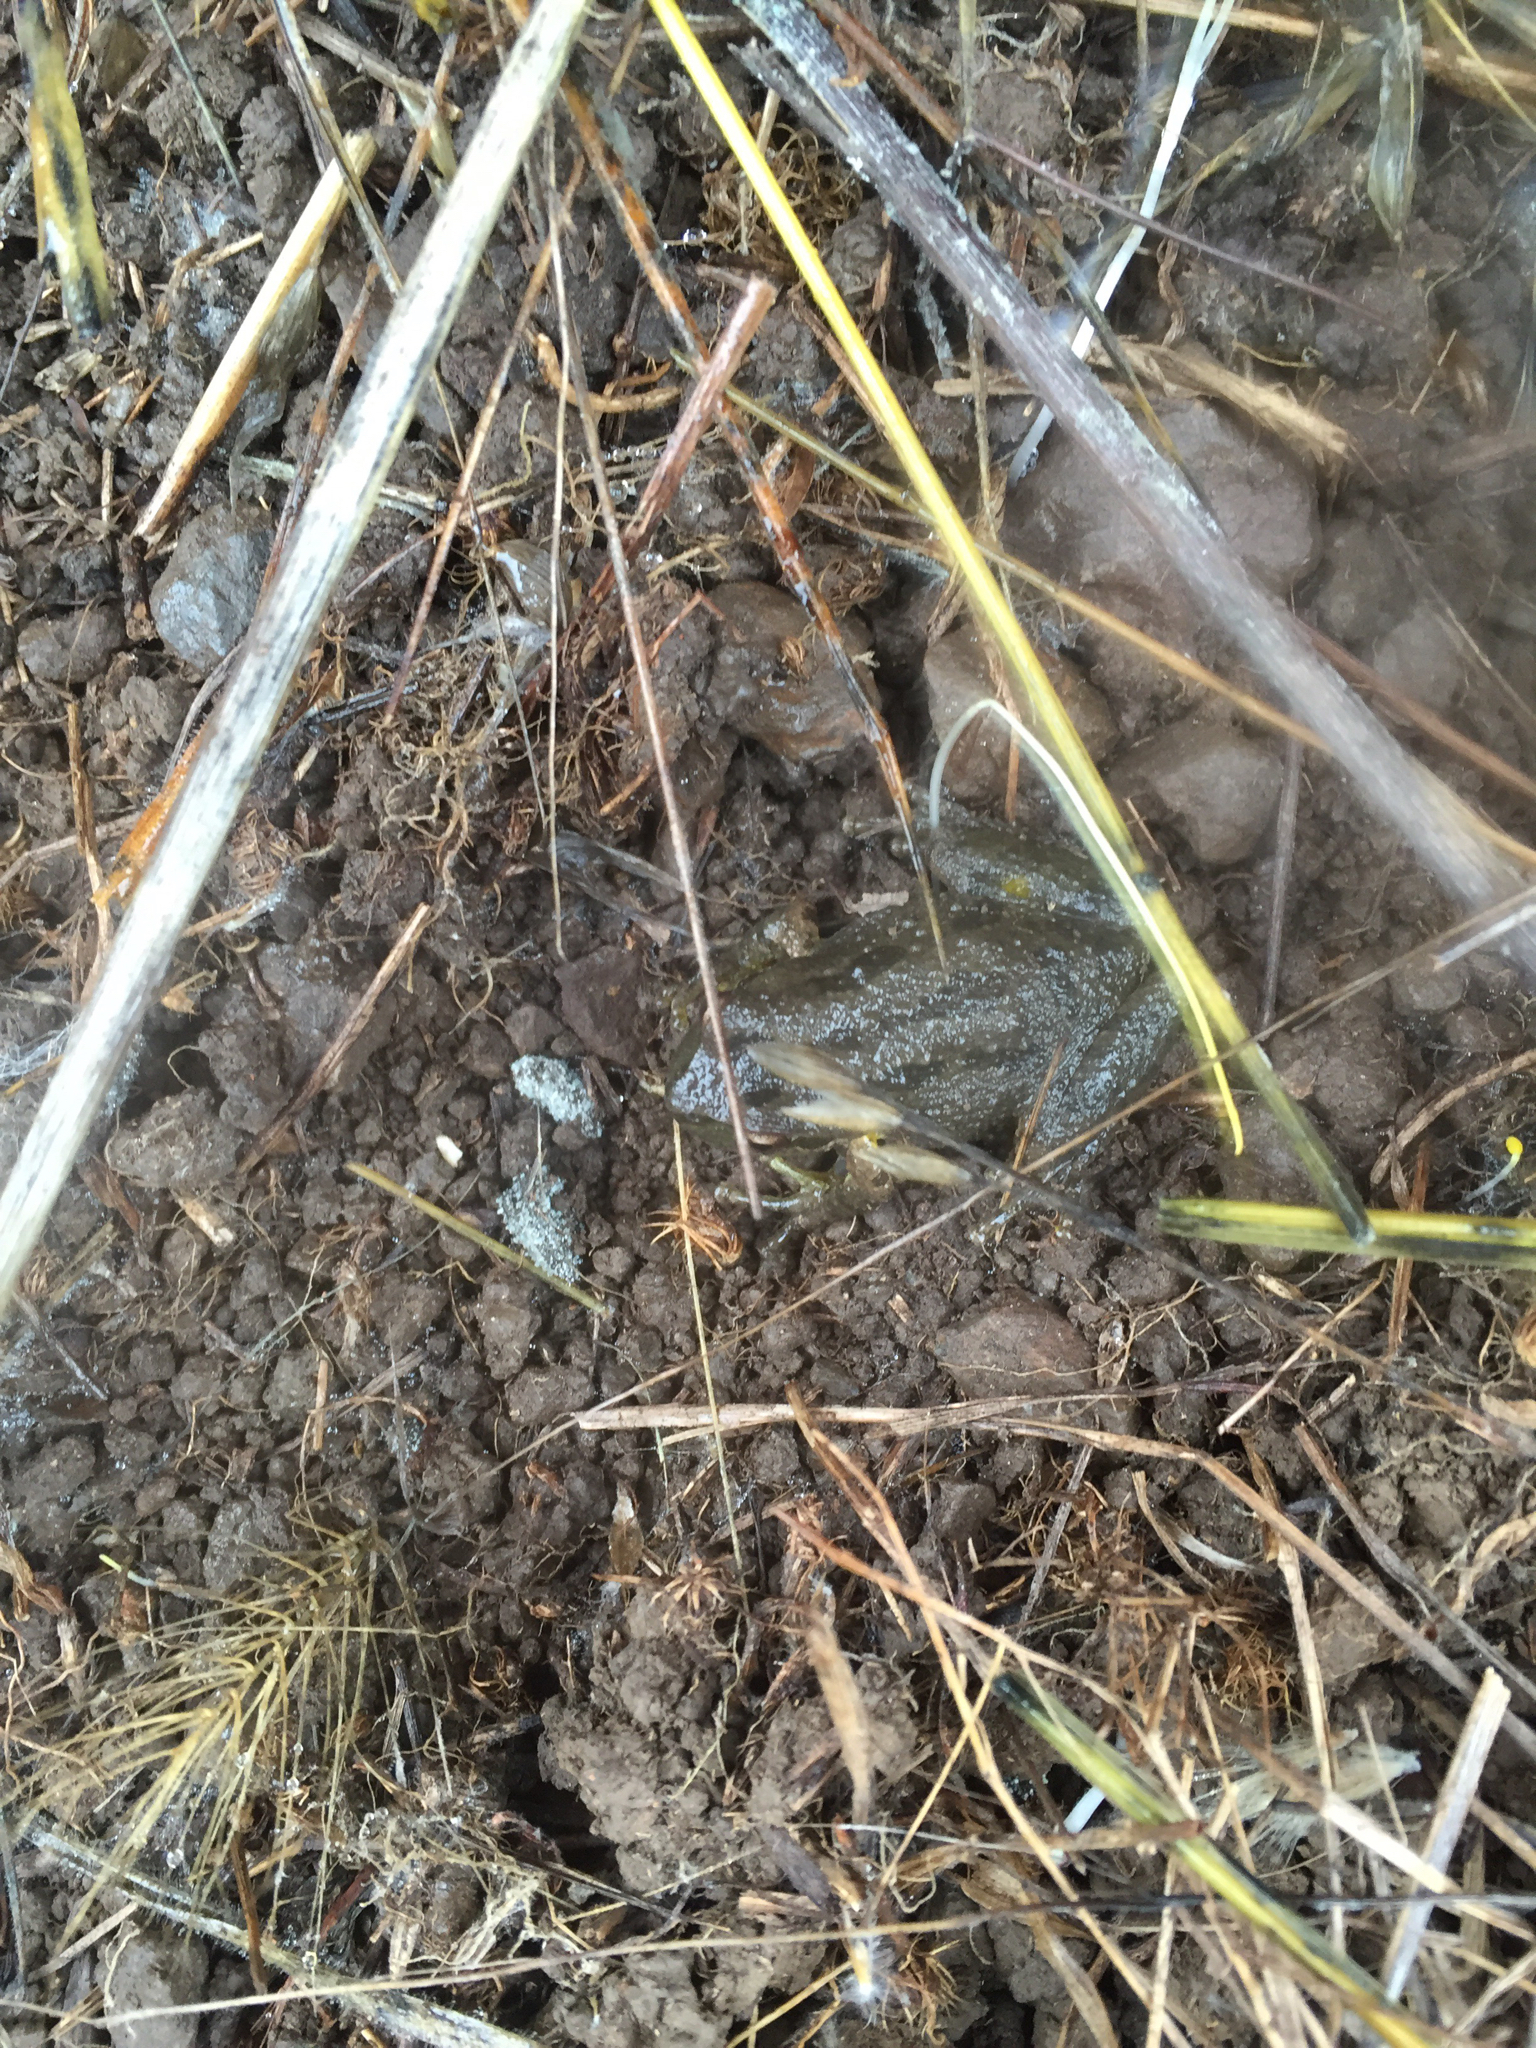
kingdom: Animalia
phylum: Chordata
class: Amphibia
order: Anura
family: Hylidae
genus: Pseudacris
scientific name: Pseudacris regilla
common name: Pacific chorus frog
